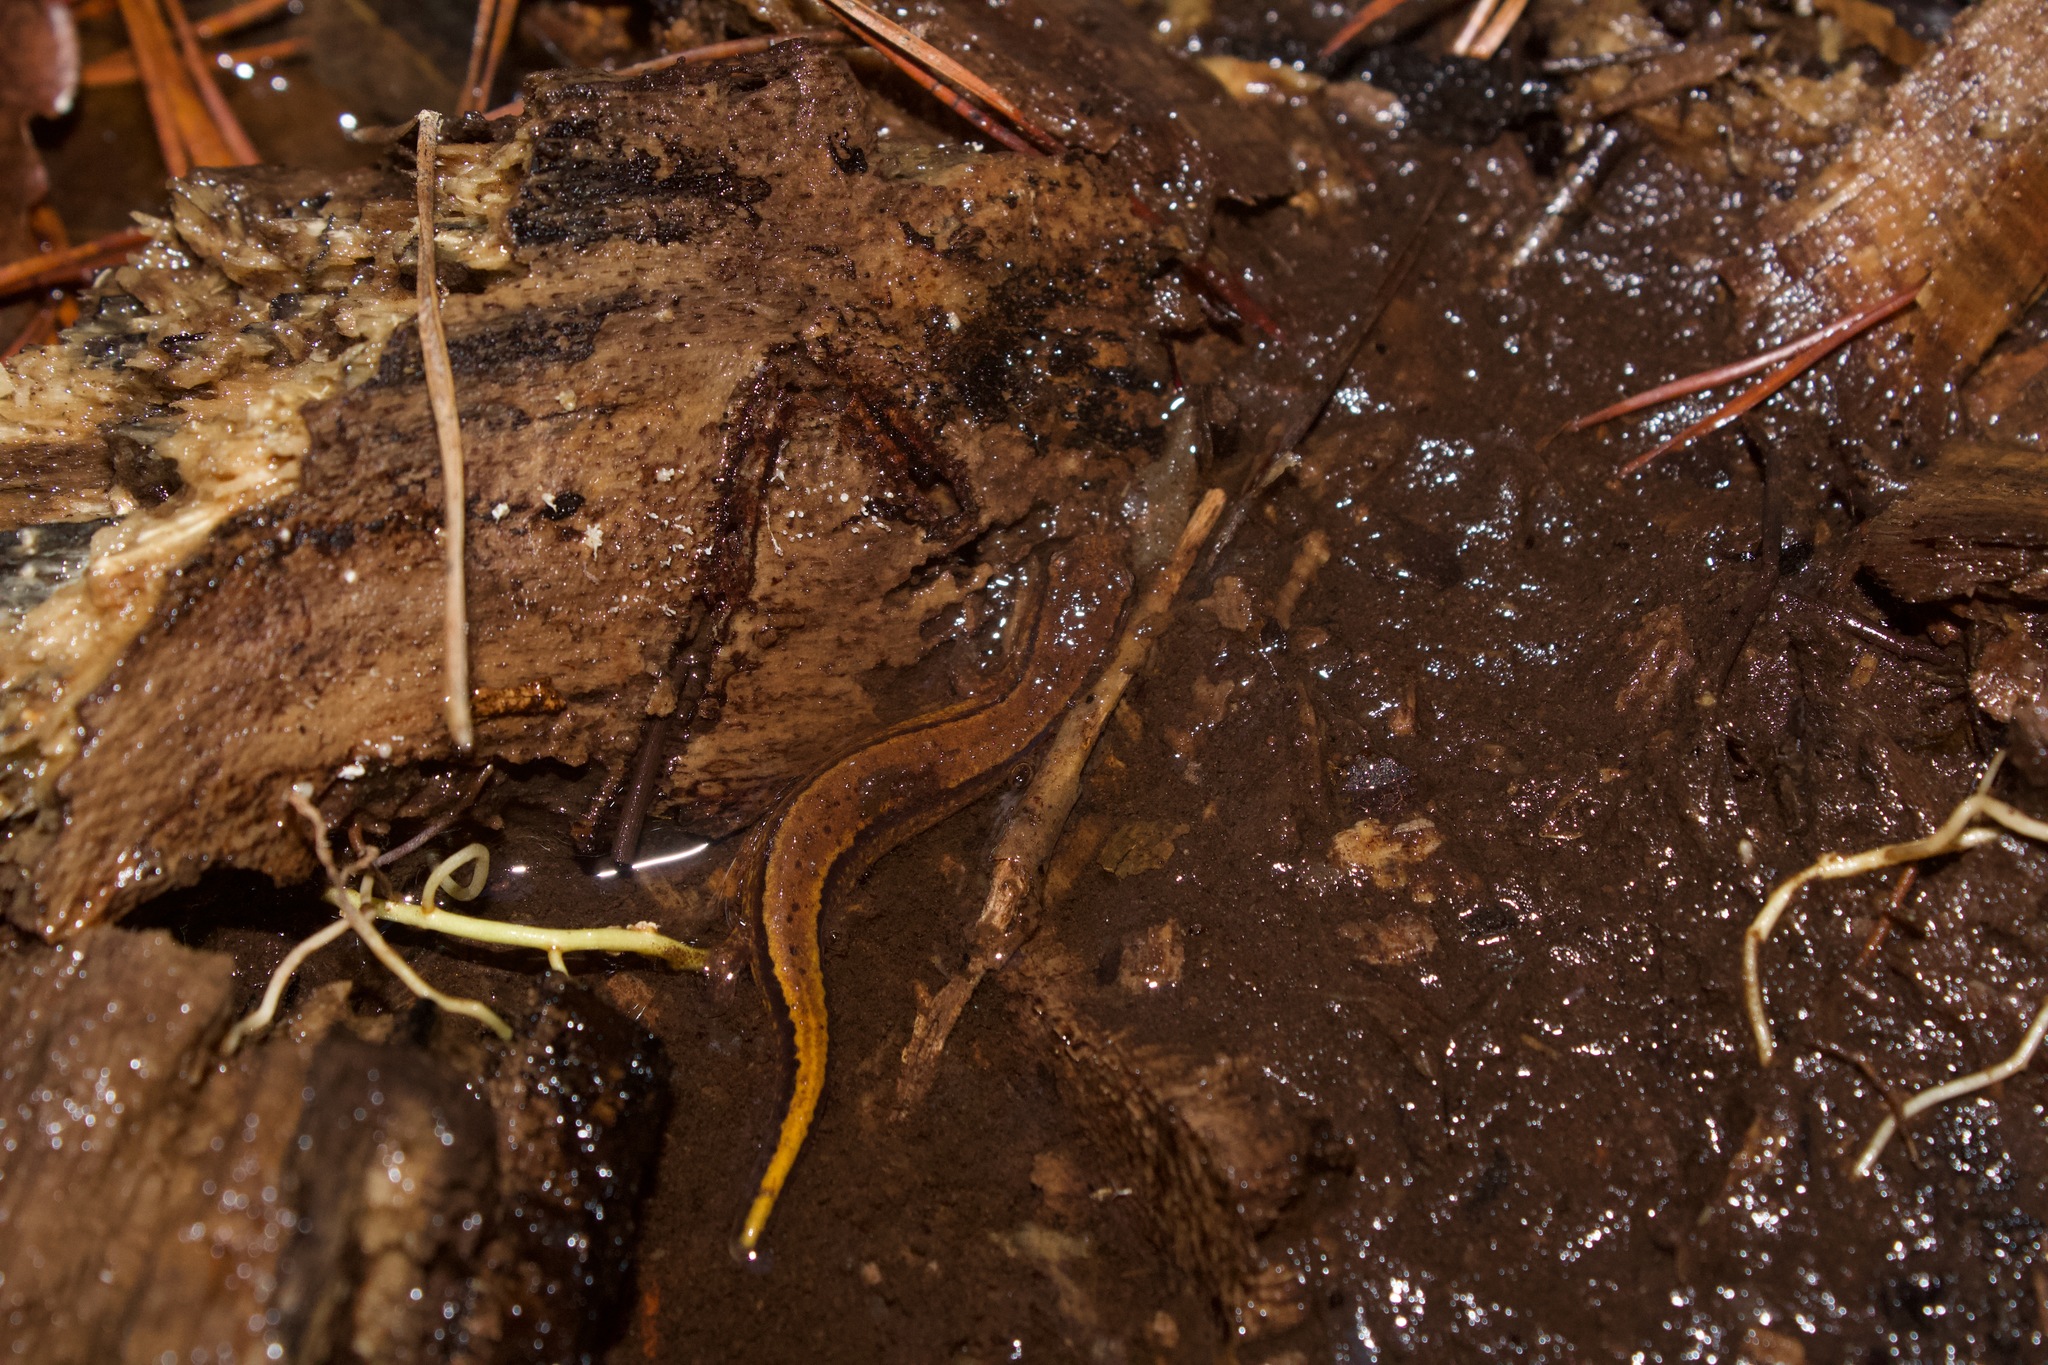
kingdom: Animalia
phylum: Chordata
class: Amphibia
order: Caudata
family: Plethodontidae
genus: Eurycea
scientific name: Eurycea cirrigera
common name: Southern two-lined salamander
